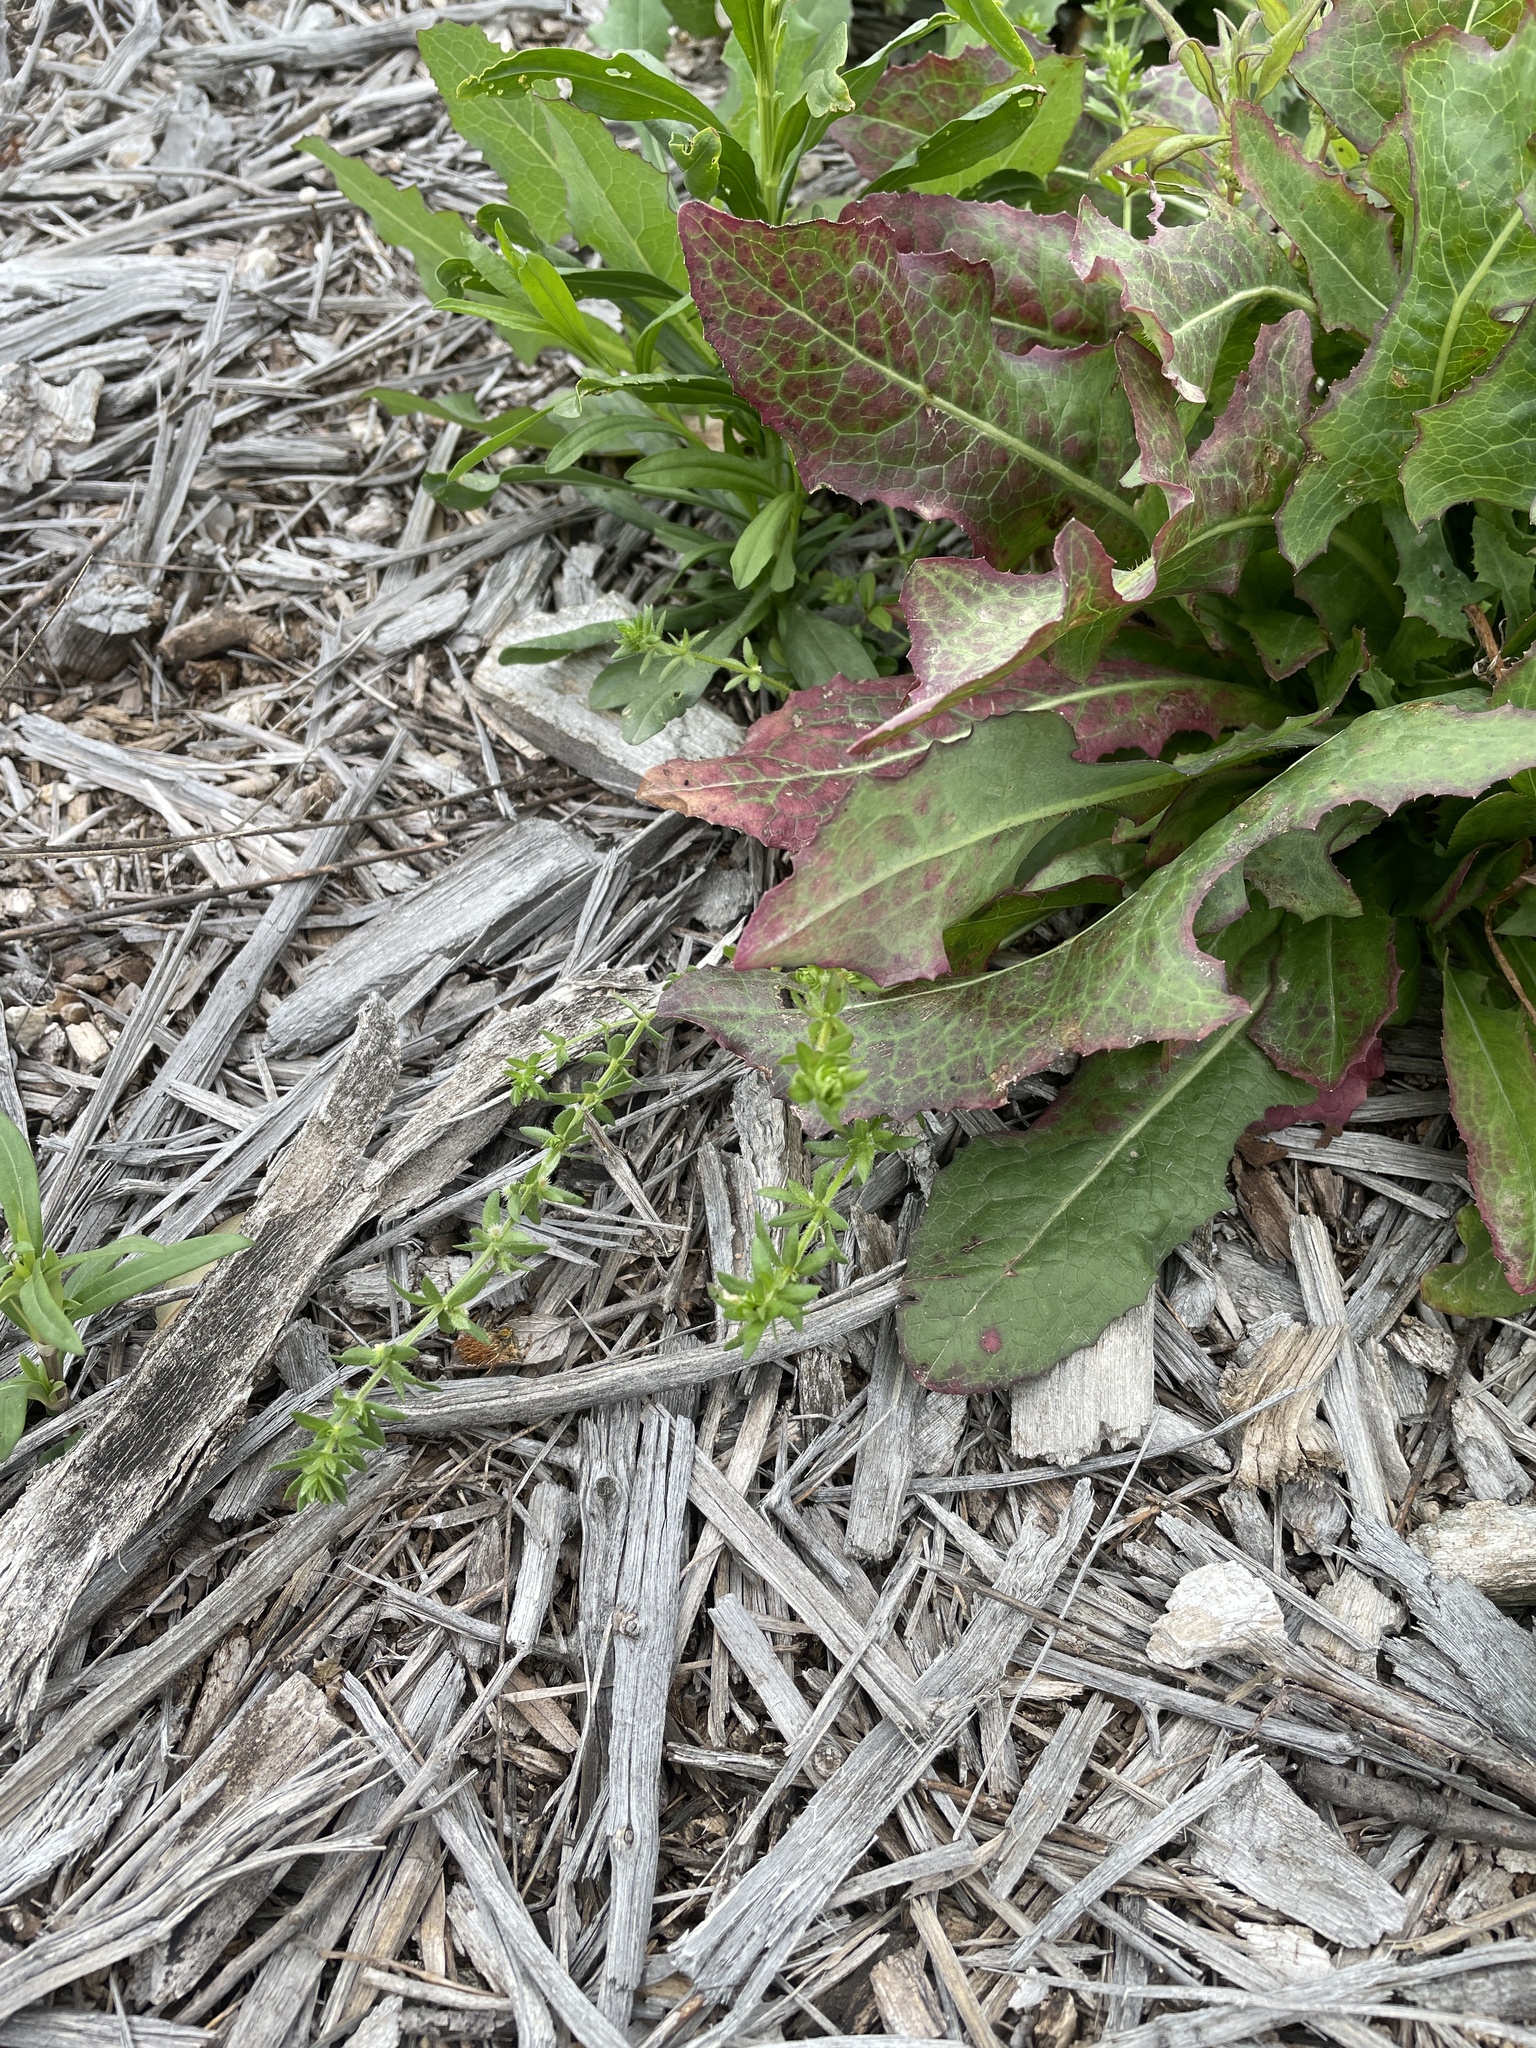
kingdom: Plantae
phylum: Tracheophyta
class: Magnoliopsida
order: Gentianales
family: Rubiaceae
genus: Galium
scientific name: Galium virgatum
